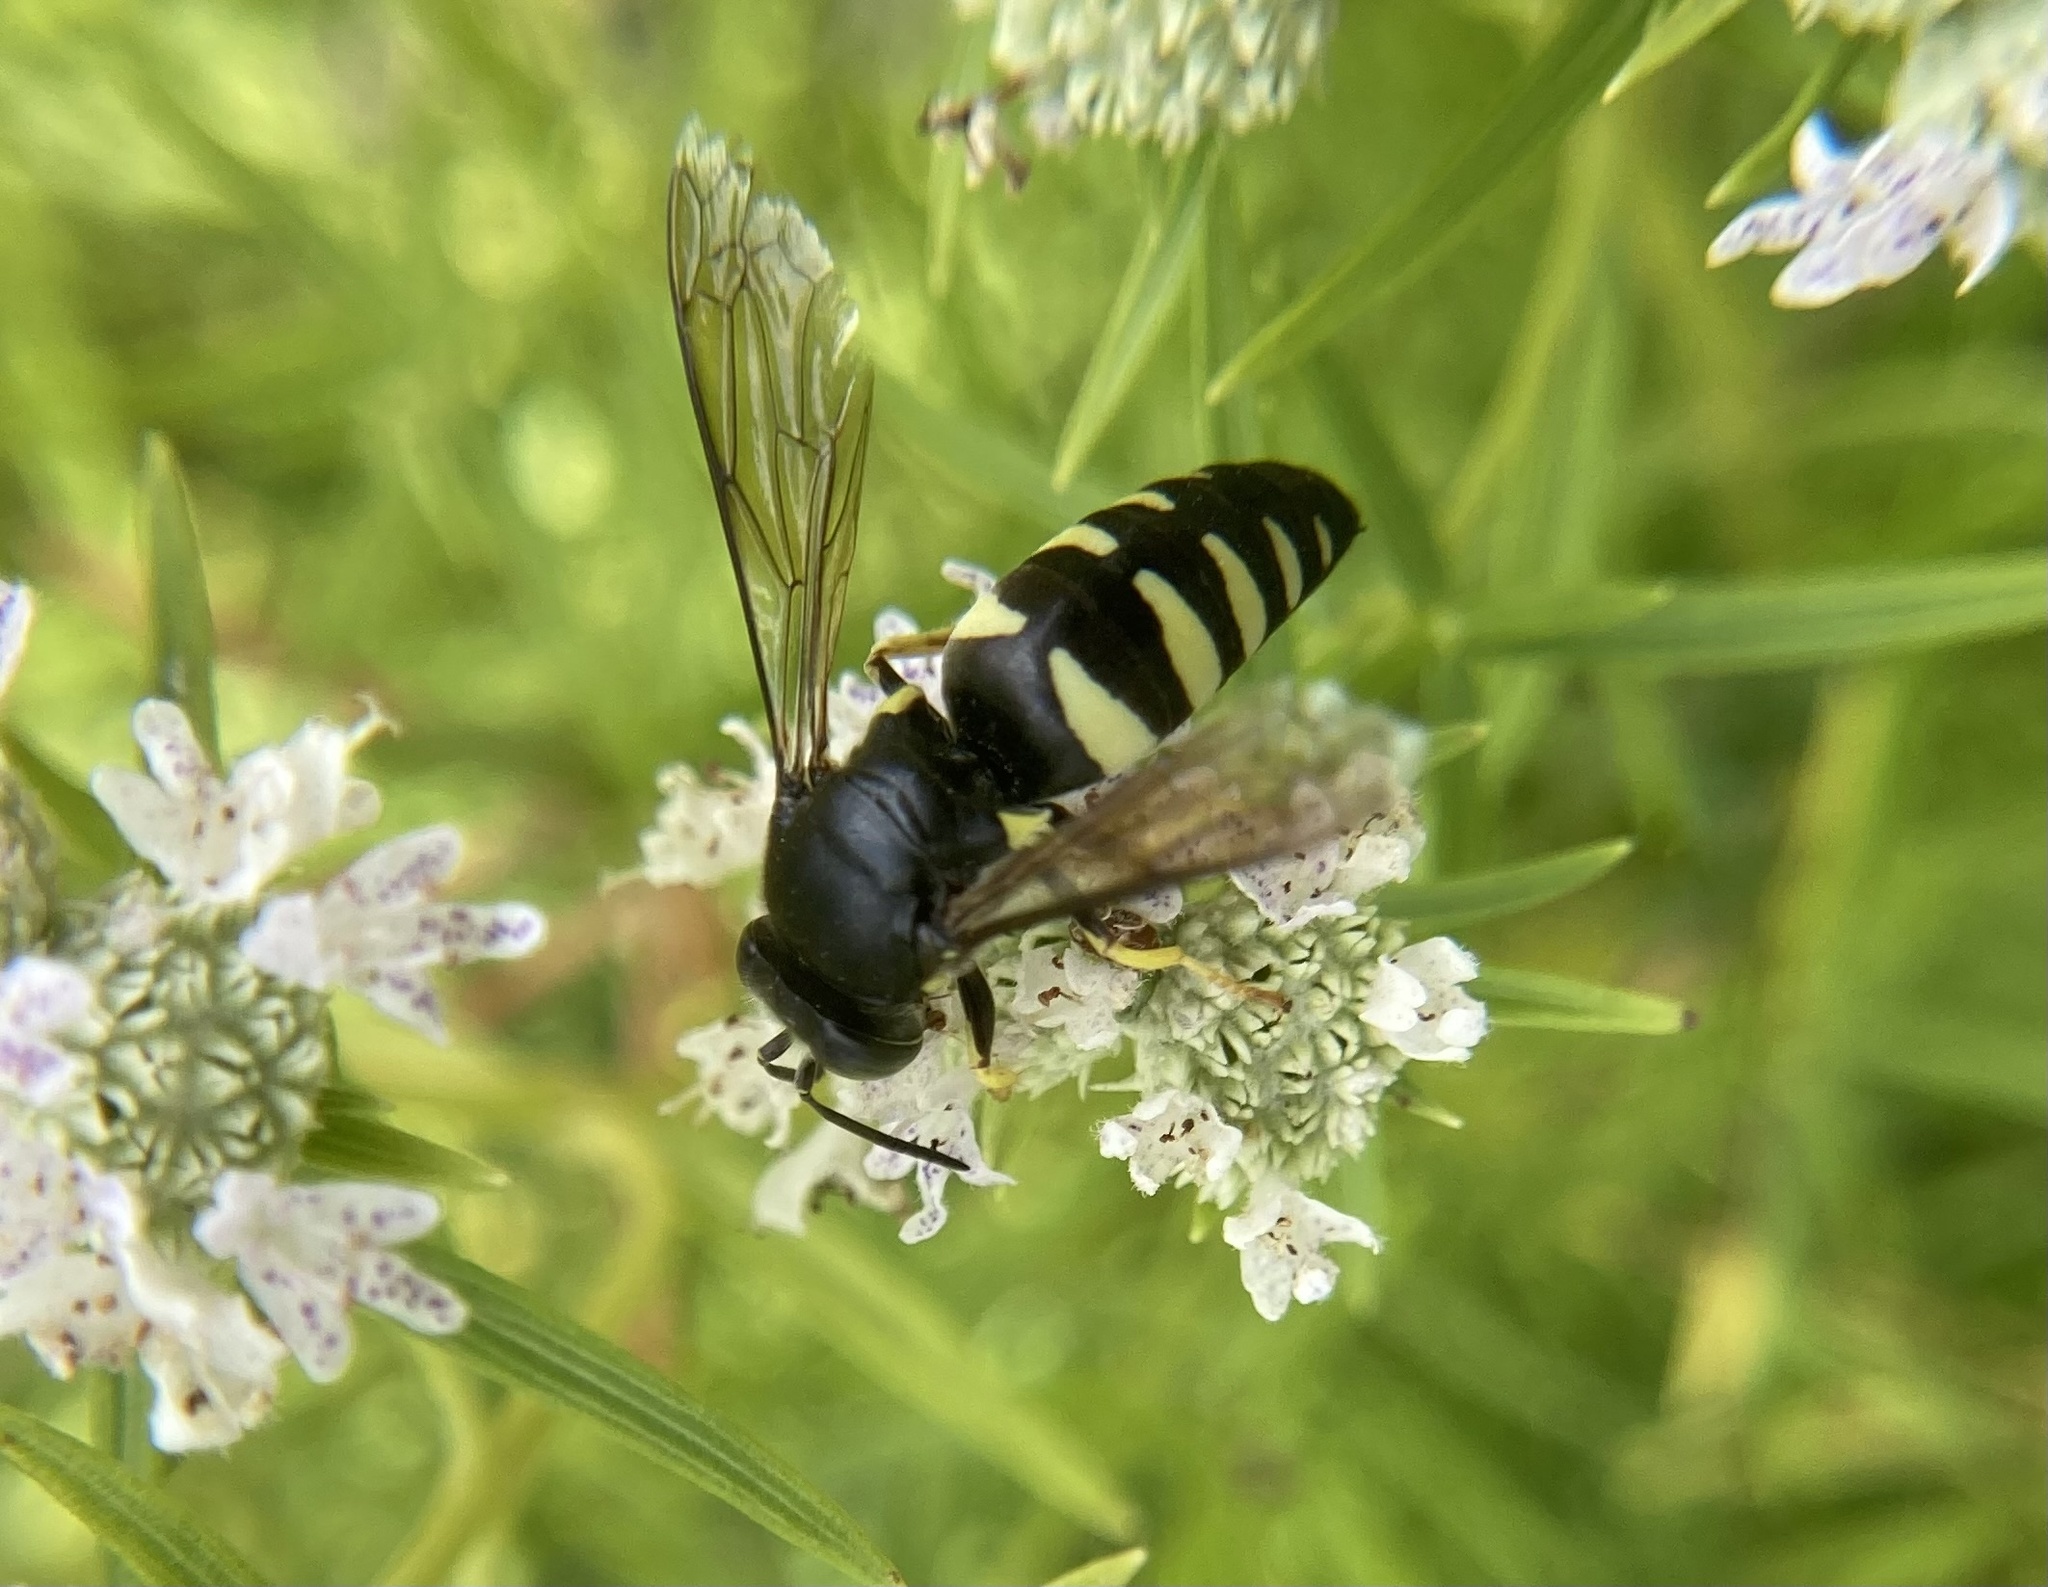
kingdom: Animalia
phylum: Arthropoda
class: Insecta
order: Hymenoptera
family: Crabronidae
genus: Bicyrtes
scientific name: Bicyrtes quadrifasciatus
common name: Four-banded stink bug hunter wasp
